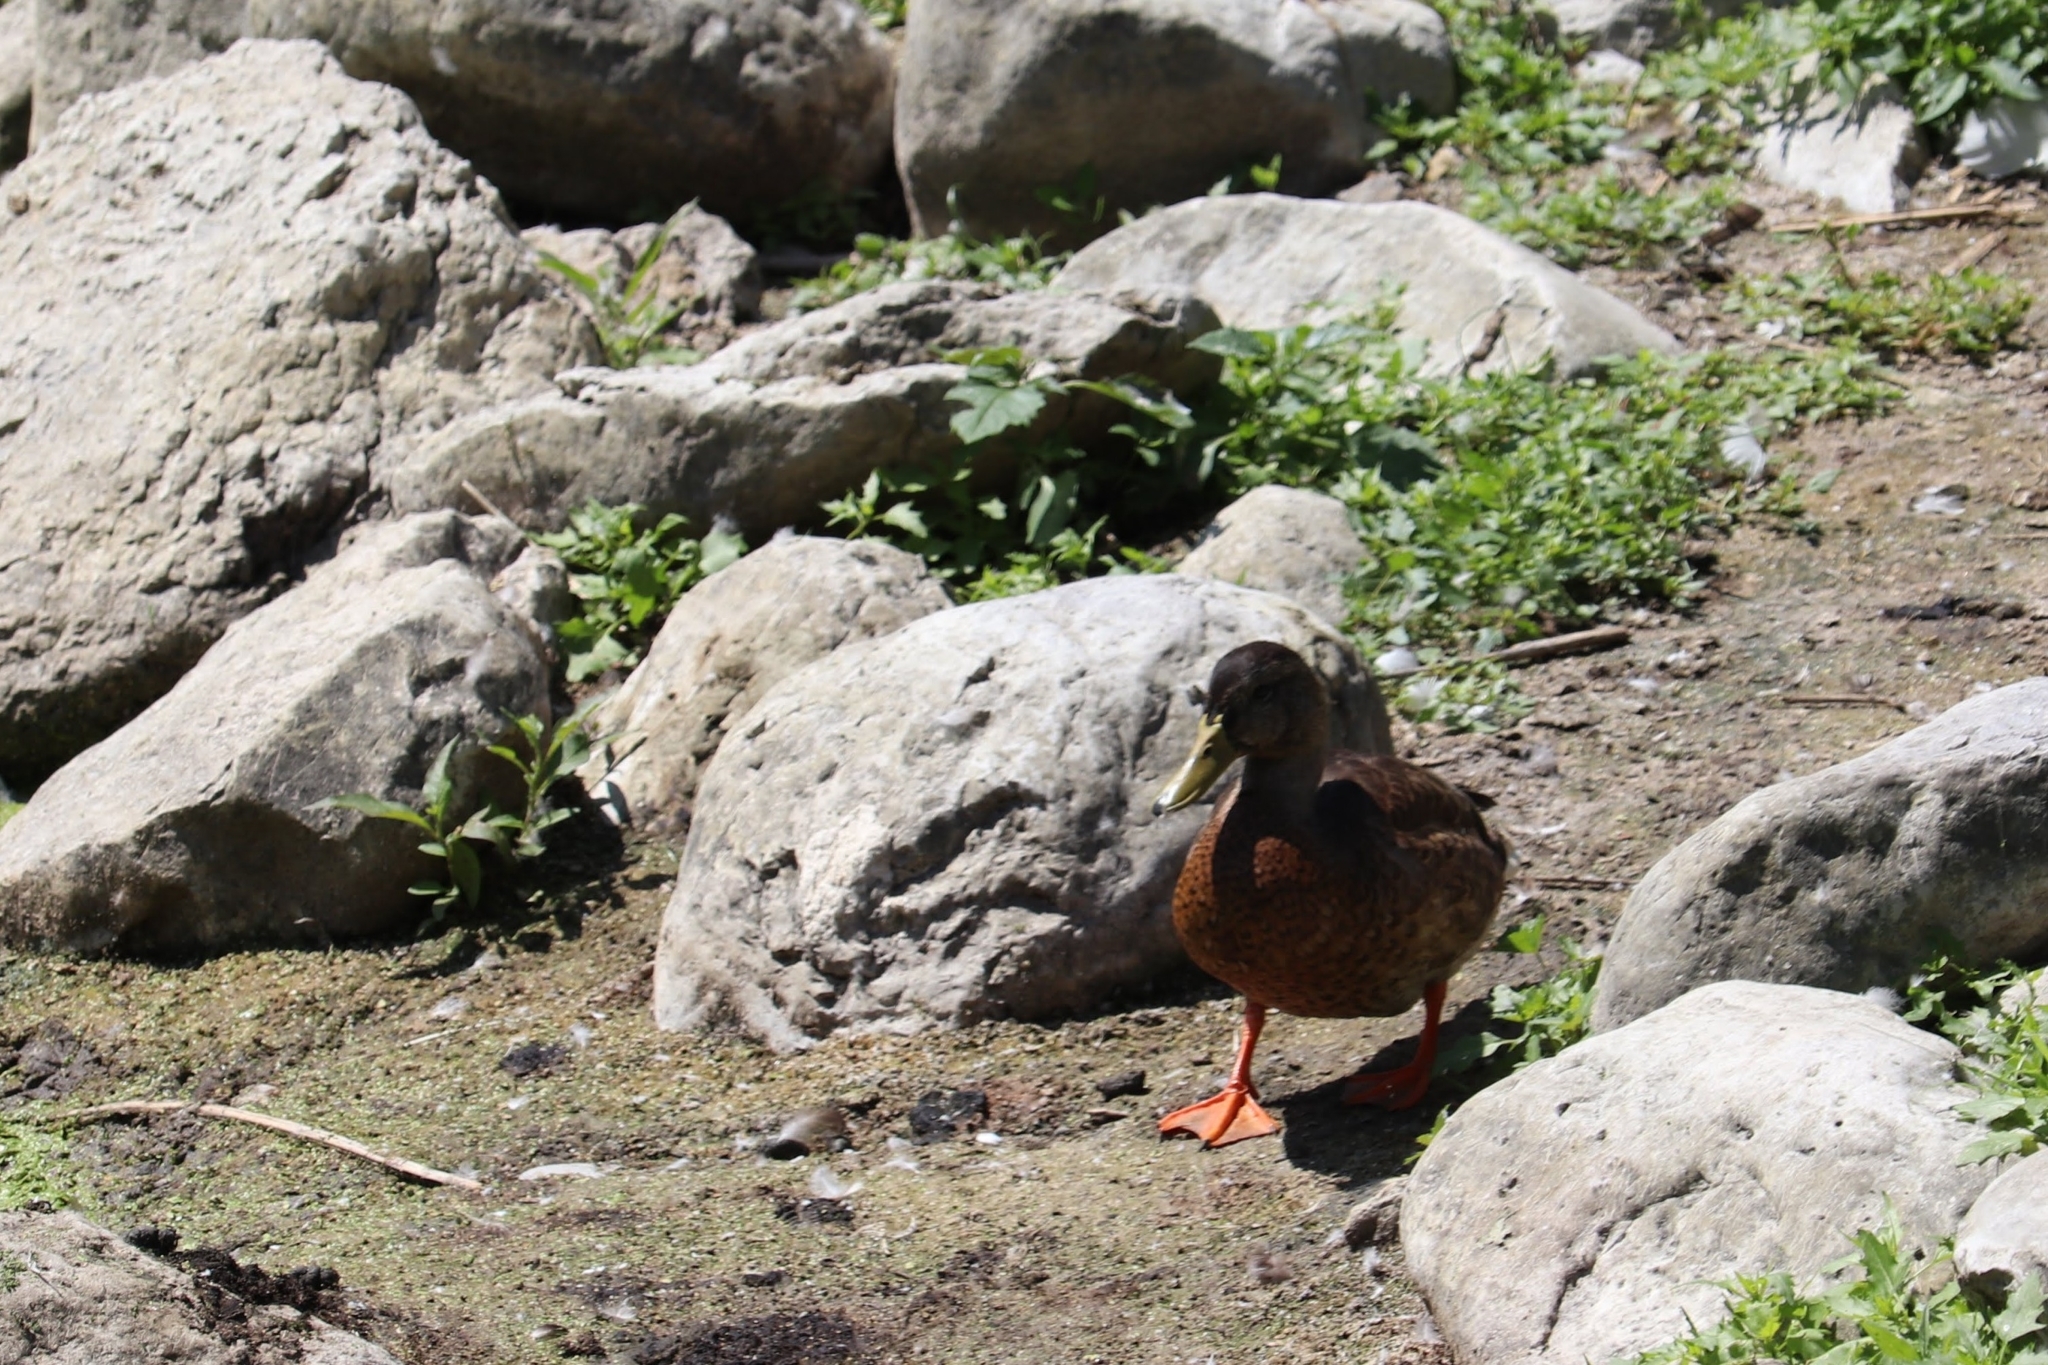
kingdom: Animalia
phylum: Chordata
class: Aves
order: Anseriformes
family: Anatidae
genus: Anas
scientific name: Anas platyrhynchos
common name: Mallard
